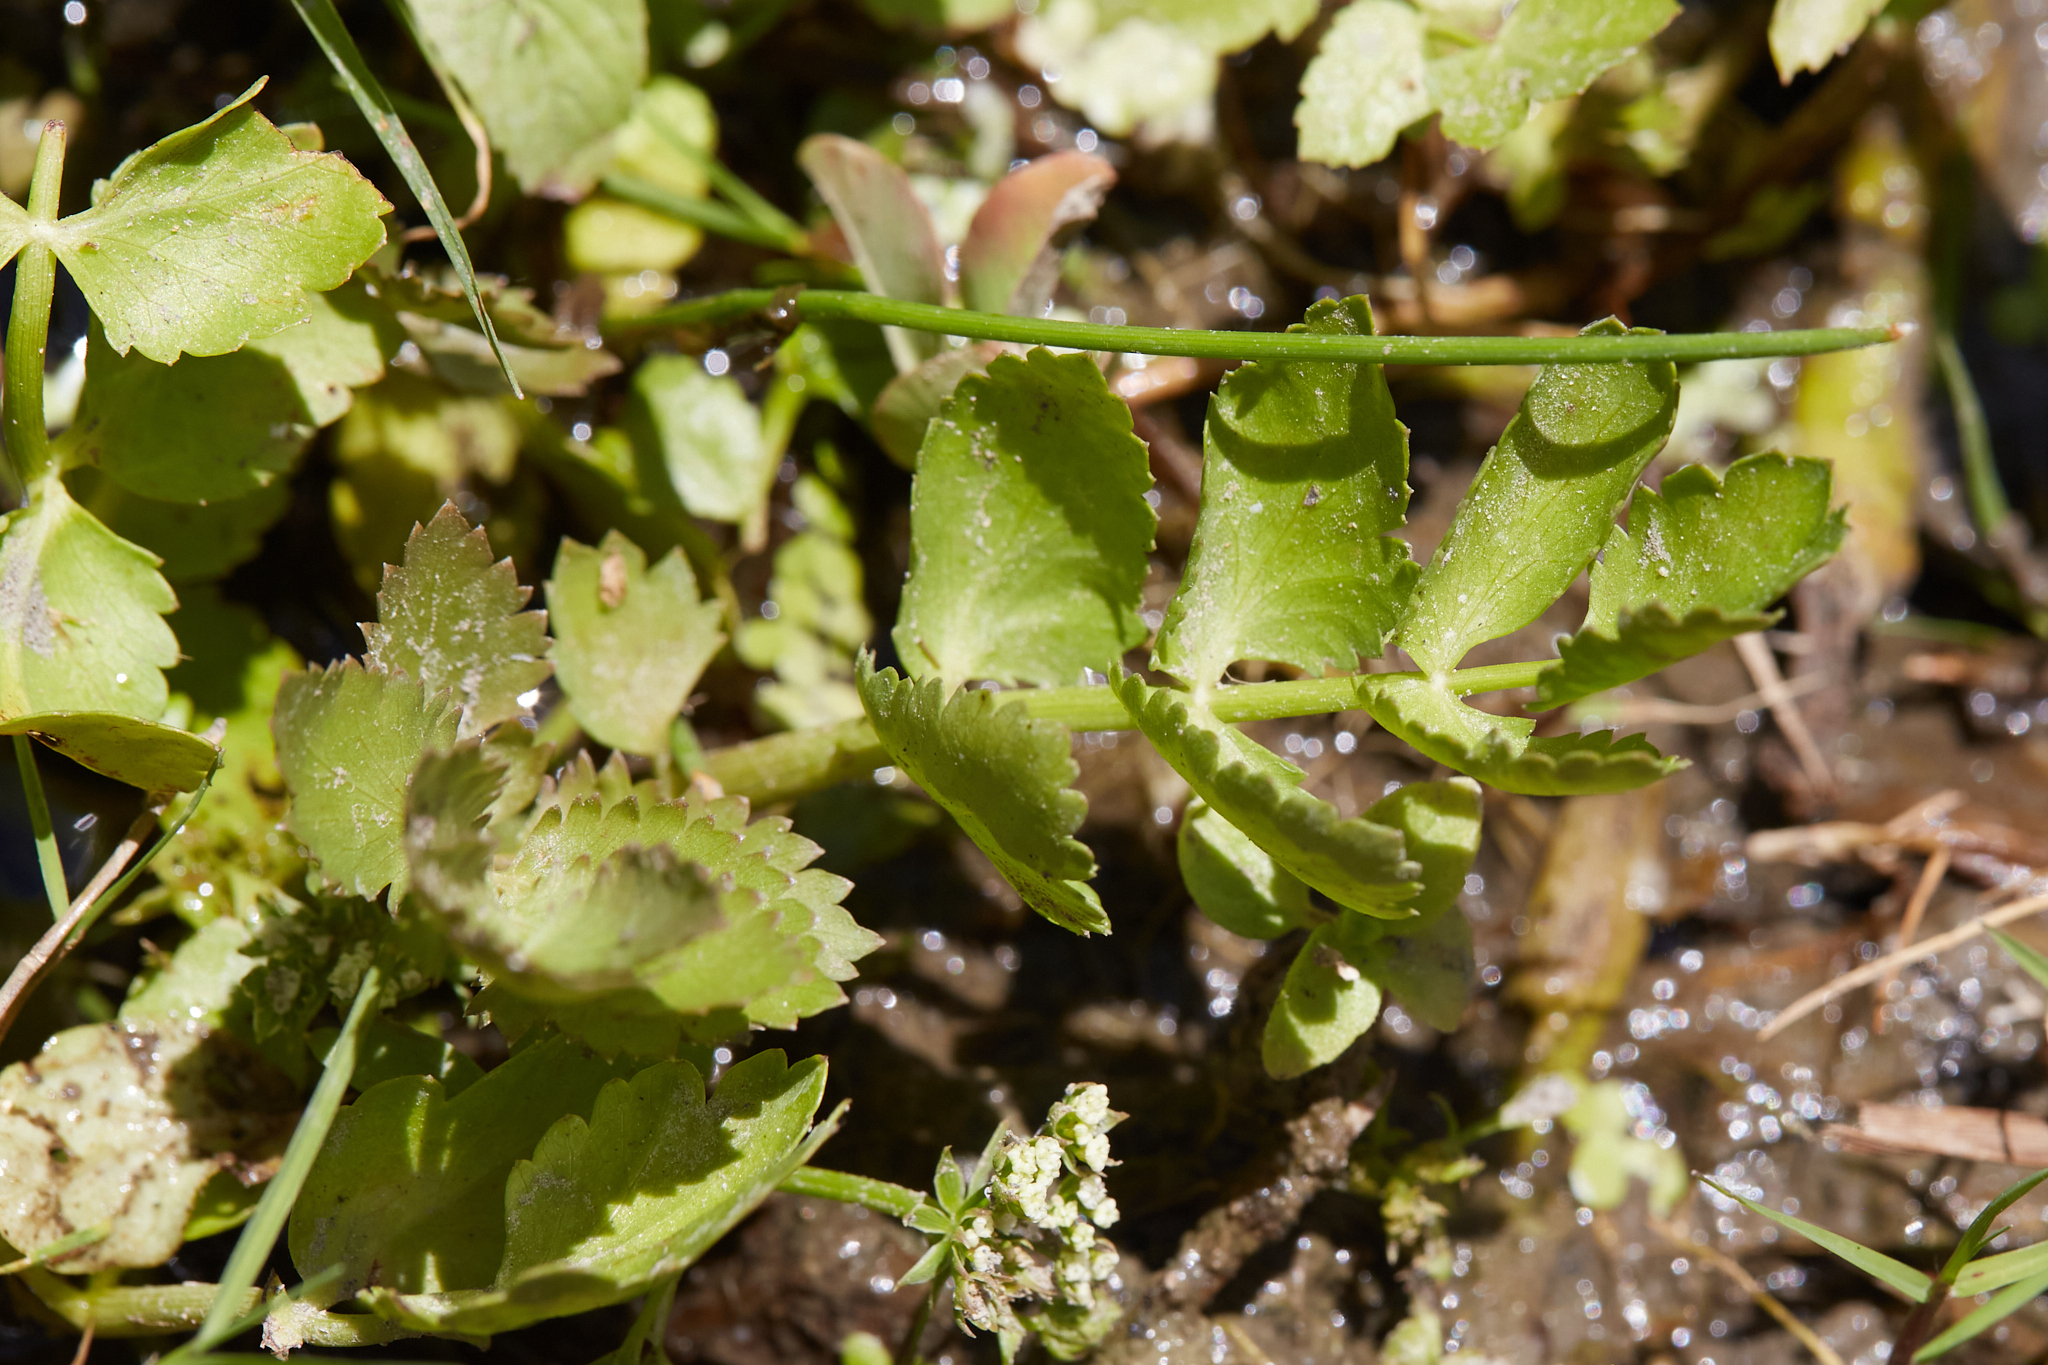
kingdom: Plantae
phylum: Tracheophyta
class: Magnoliopsida
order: Apiales
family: Apiaceae
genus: Berula
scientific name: Berula erecta
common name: Lesser water-parsnip
